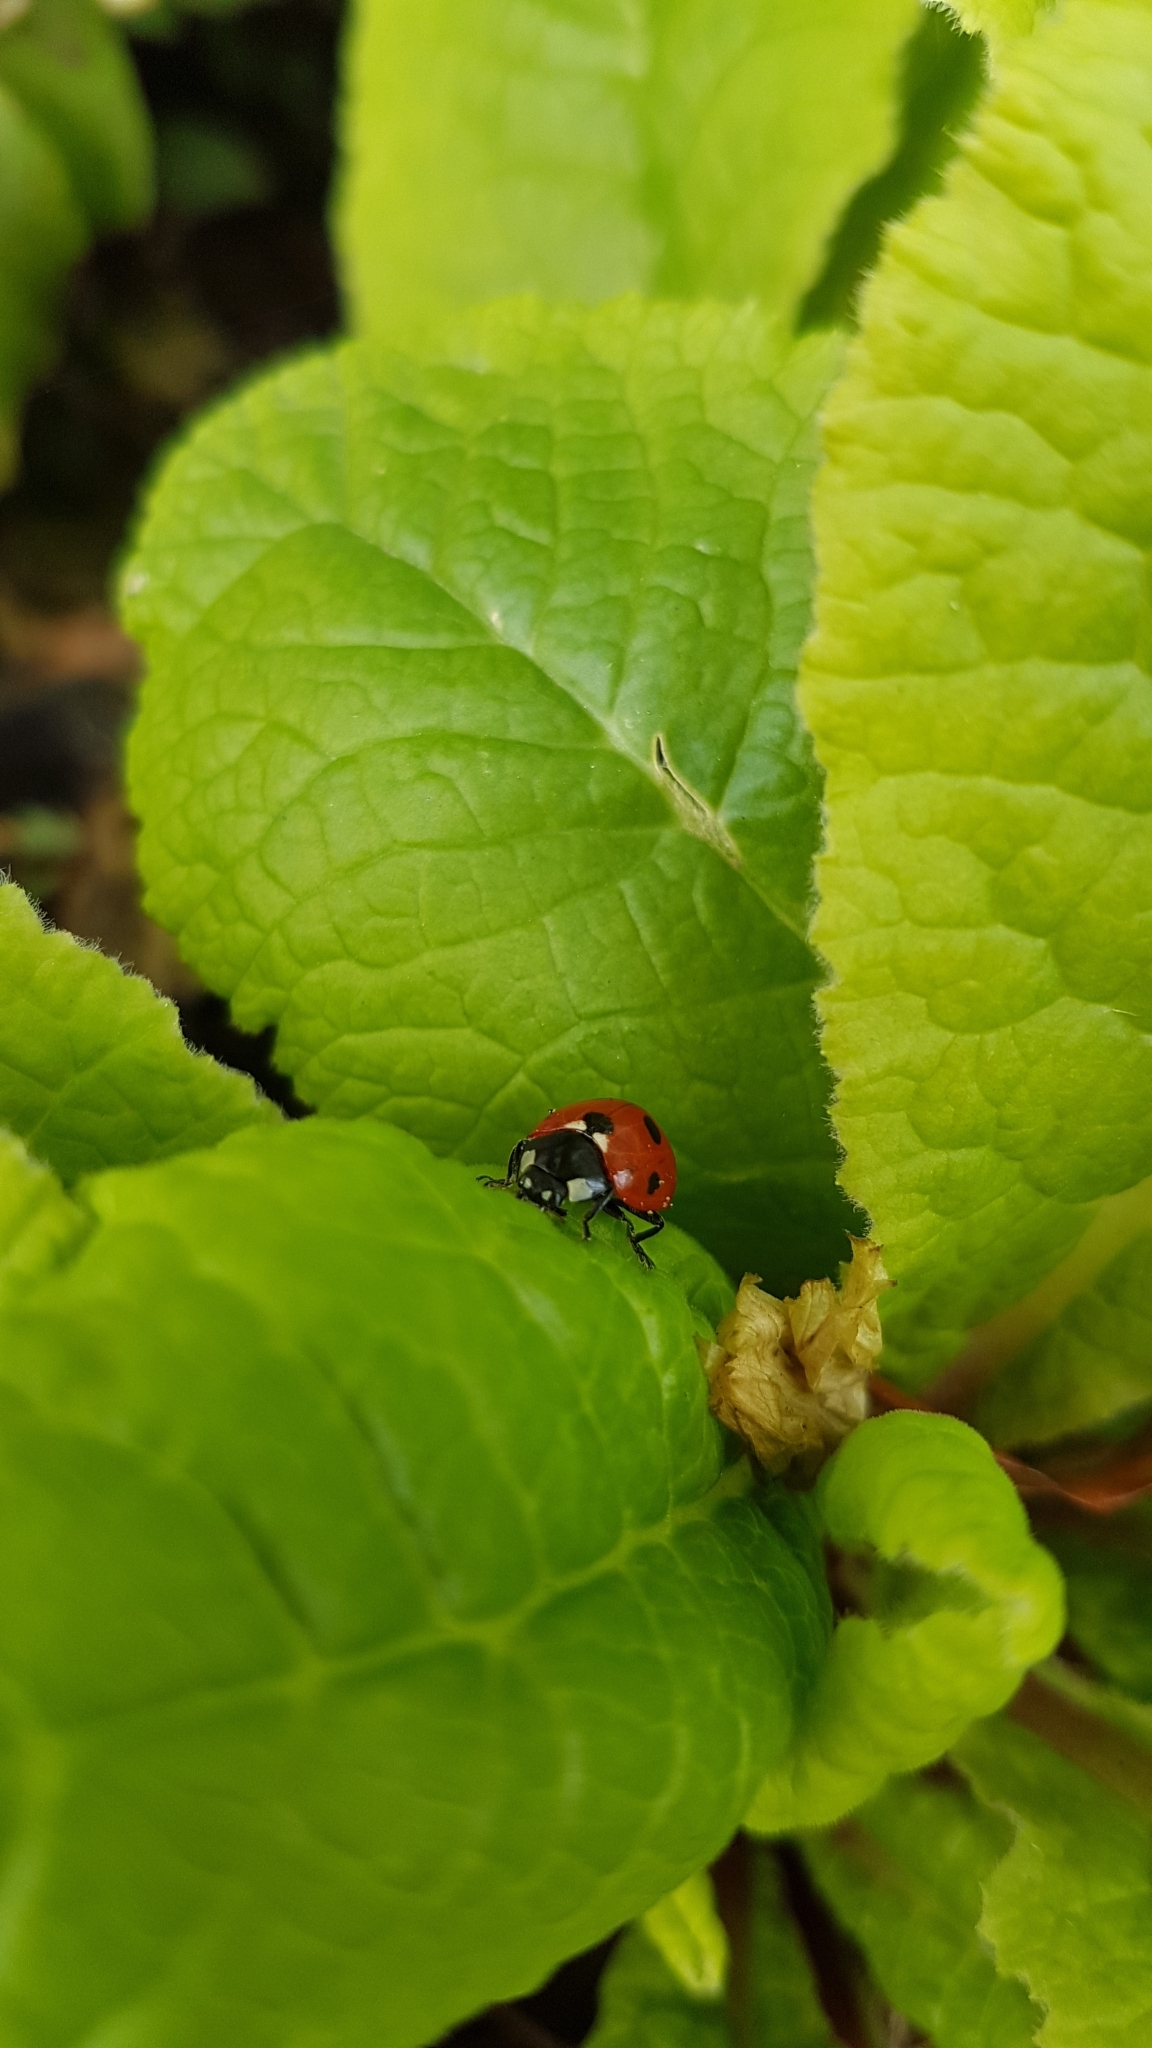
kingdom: Animalia
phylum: Arthropoda
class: Insecta
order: Coleoptera
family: Coccinellidae
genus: Coccinella
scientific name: Coccinella septempunctata
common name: Sevenspotted lady beetle
